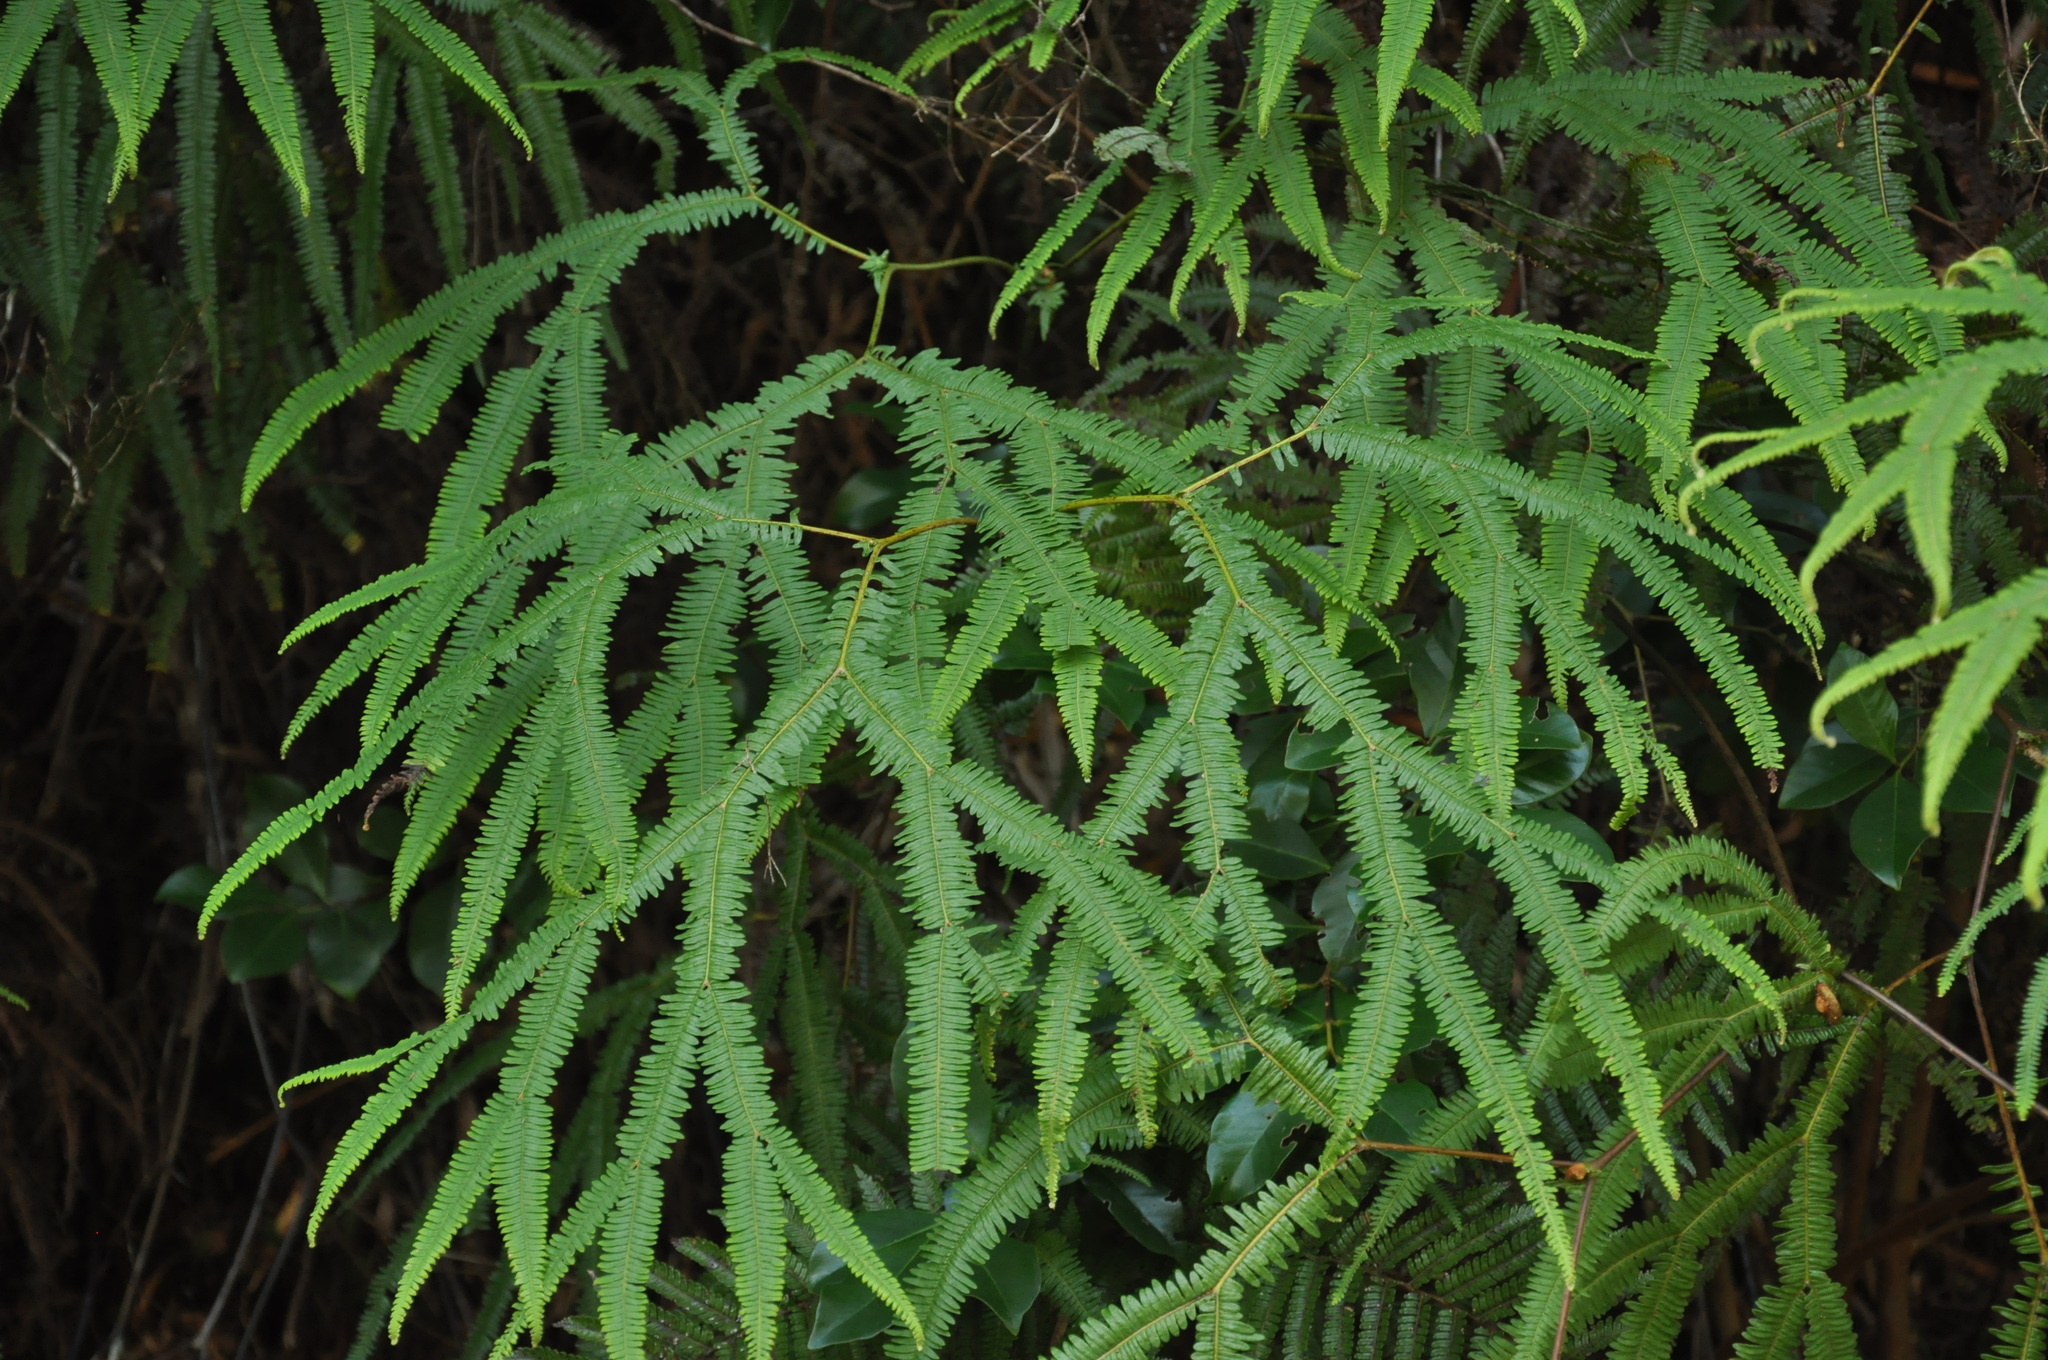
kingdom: Plantae
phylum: Tracheophyta
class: Polypodiopsida
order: Gleicheniales
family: Gleicheniaceae
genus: Sticherus
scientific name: Sticherus flagellaris
